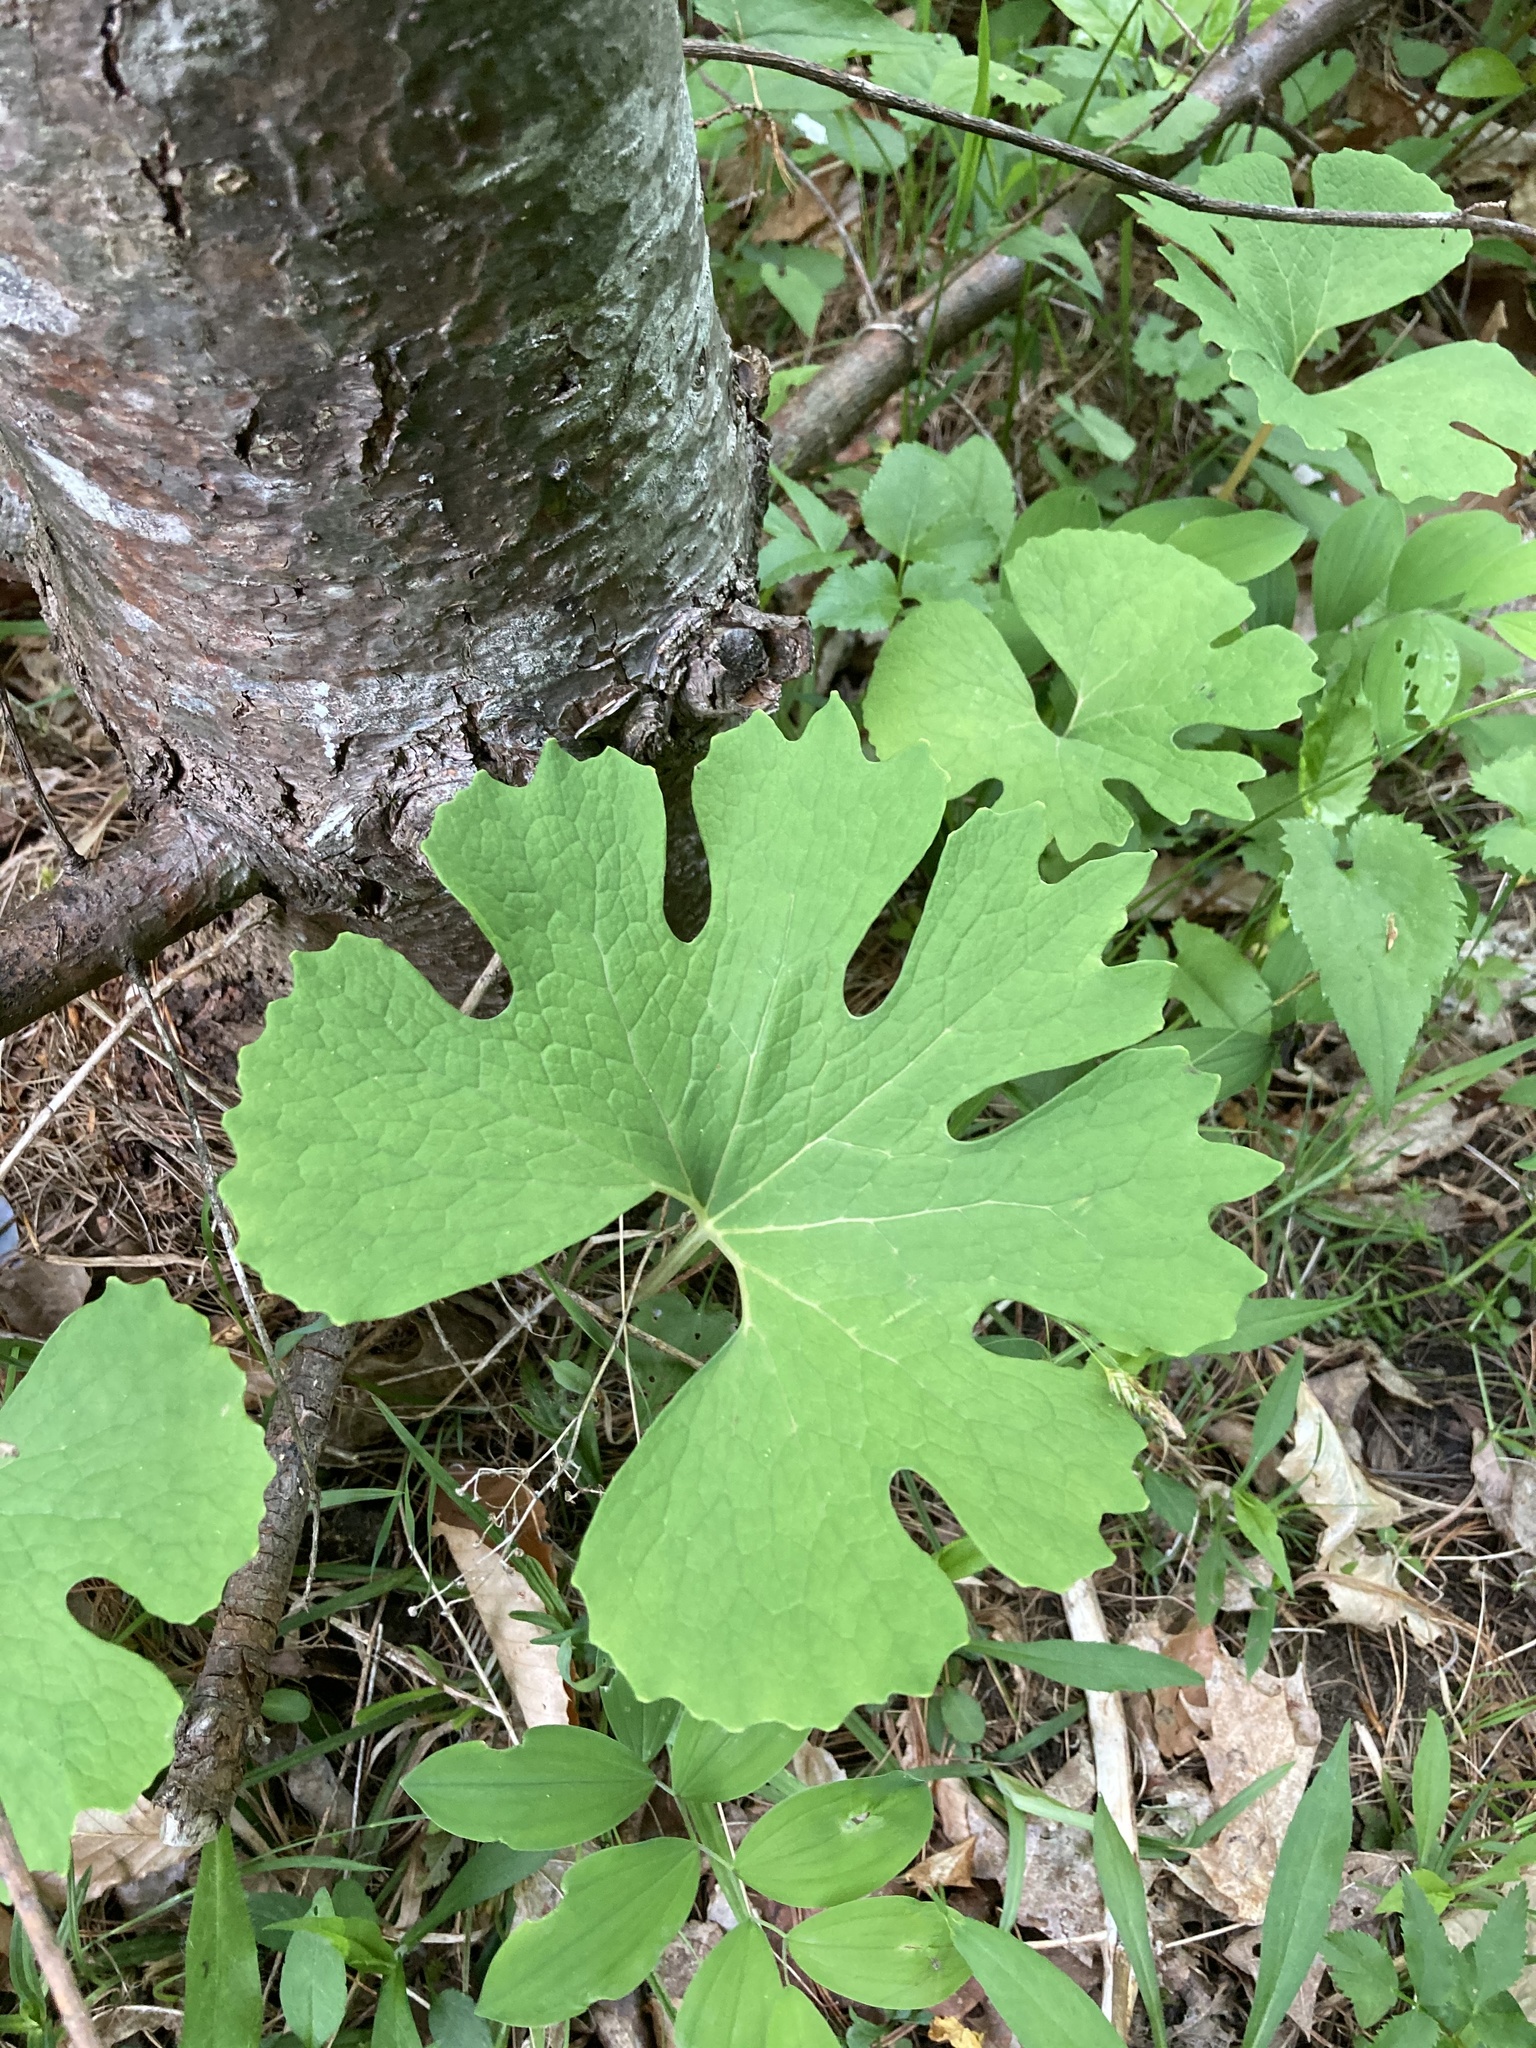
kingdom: Plantae
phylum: Tracheophyta
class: Magnoliopsida
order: Ranunculales
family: Papaveraceae
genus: Sanguinaria
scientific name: Sanguinaria canadensis
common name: Bloodroot
